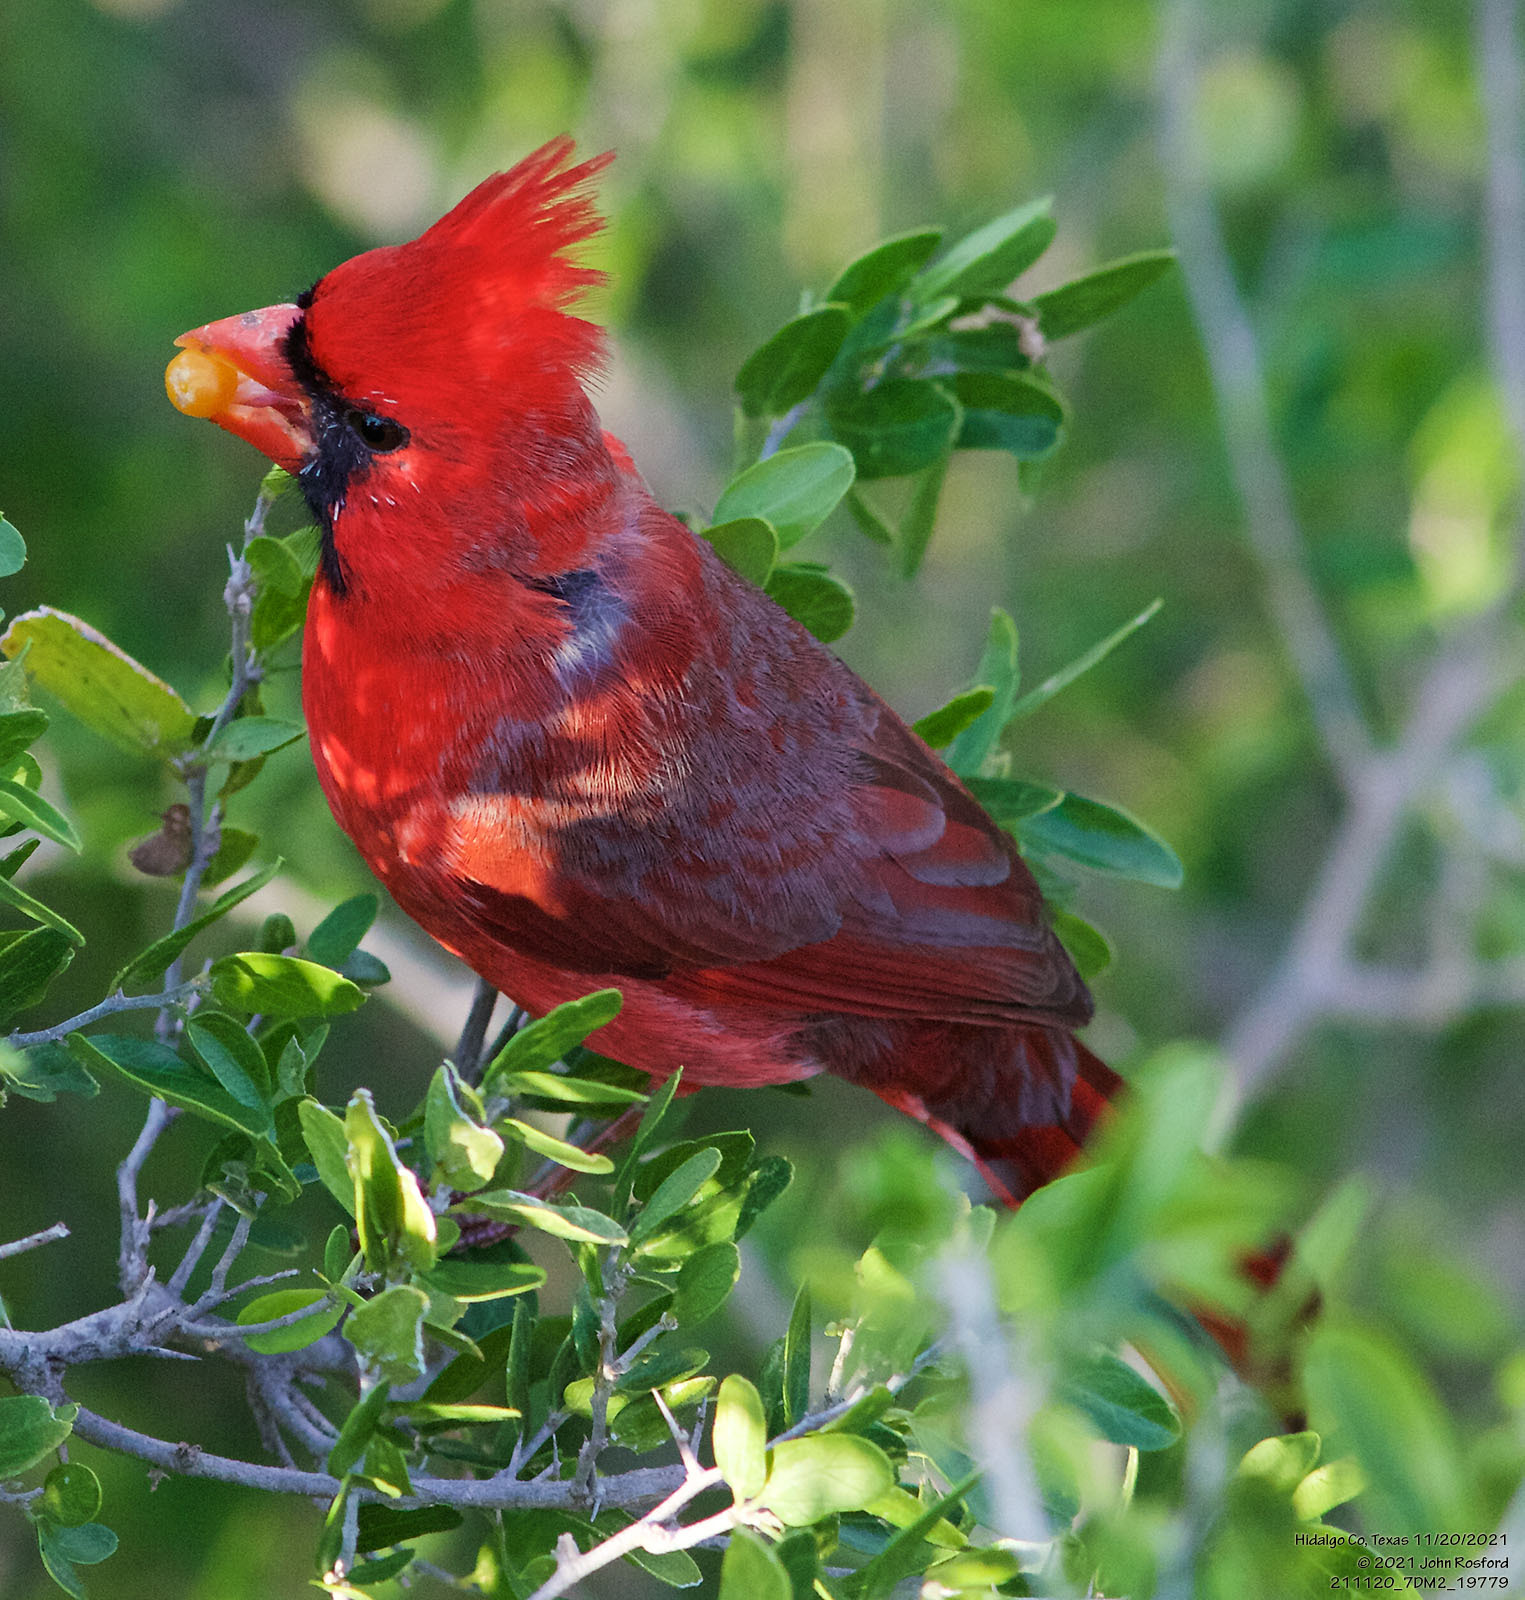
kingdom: Animalia
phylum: Chordata
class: Aves
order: Passeriformes
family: Cardinalidae
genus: Cardinalis
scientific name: Cardinalis cardinalis
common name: Northern cardinal
